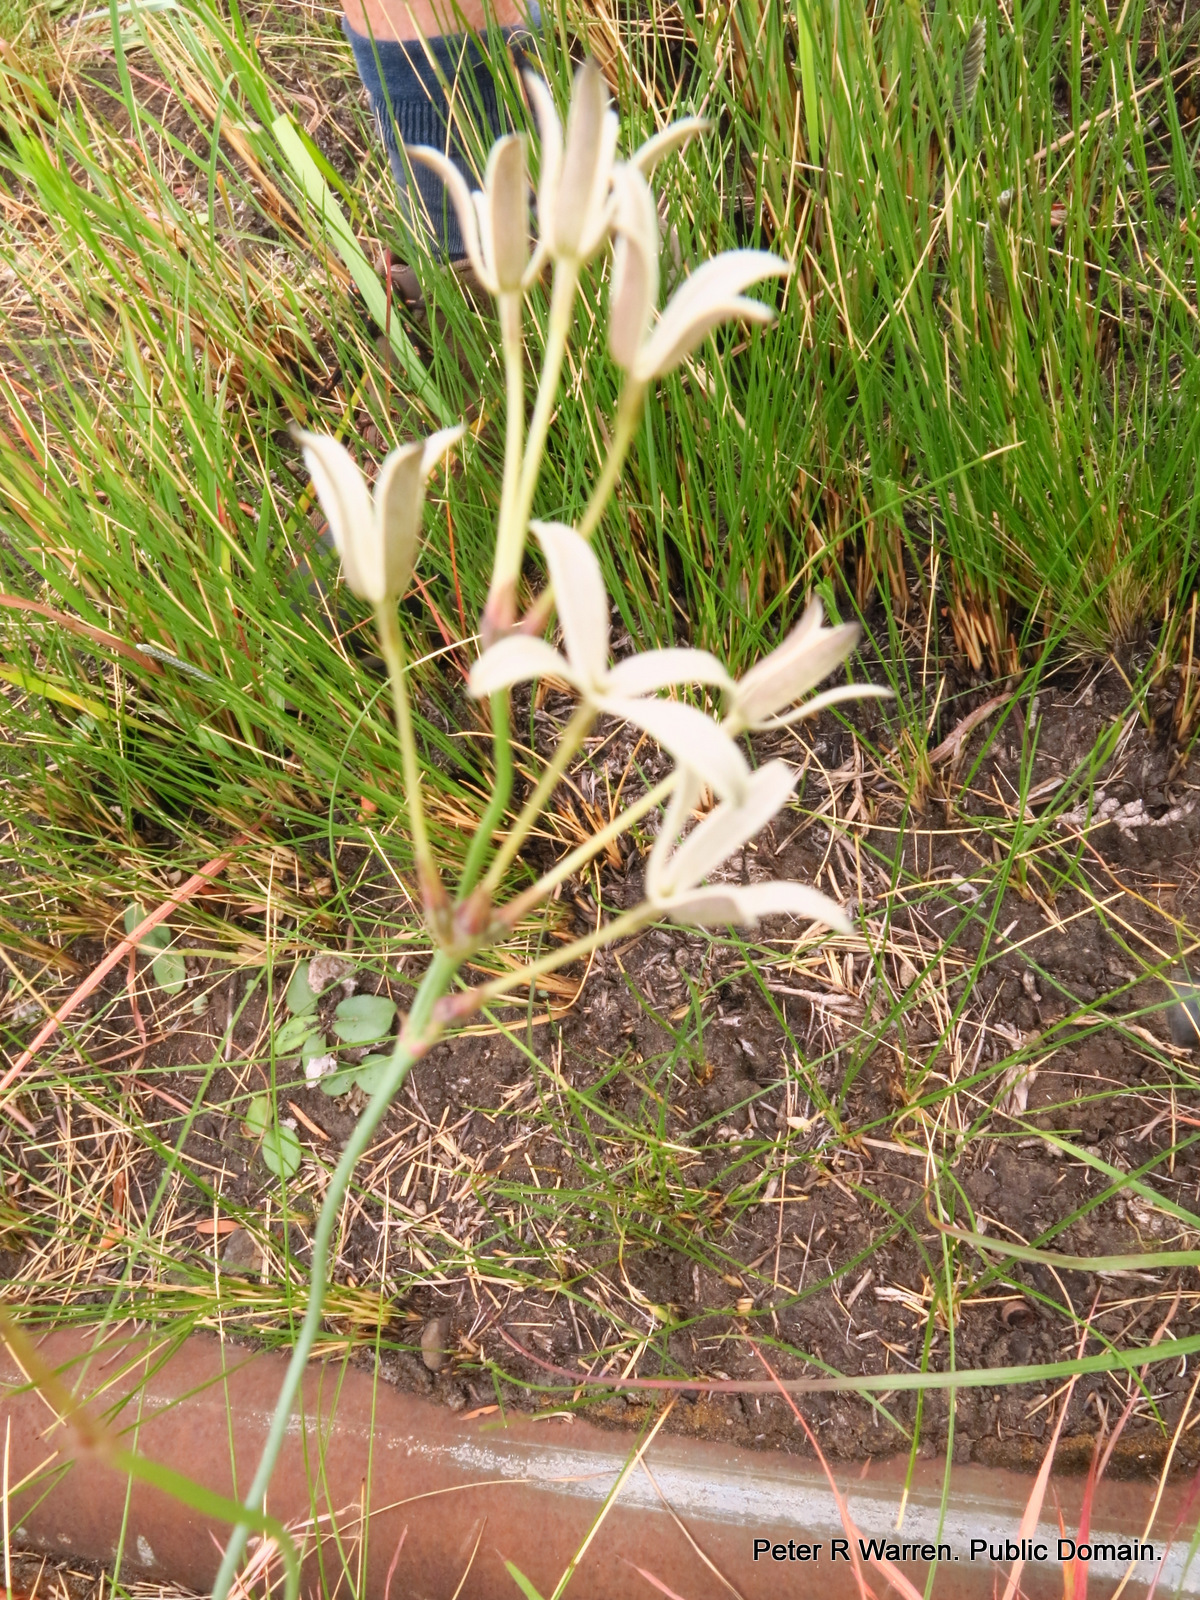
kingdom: Plantae
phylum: Tracheophyta
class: Magnoliopsida
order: Gentianales
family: Rubiaceae
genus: Kohautia
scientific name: Kohautia amatymbica
